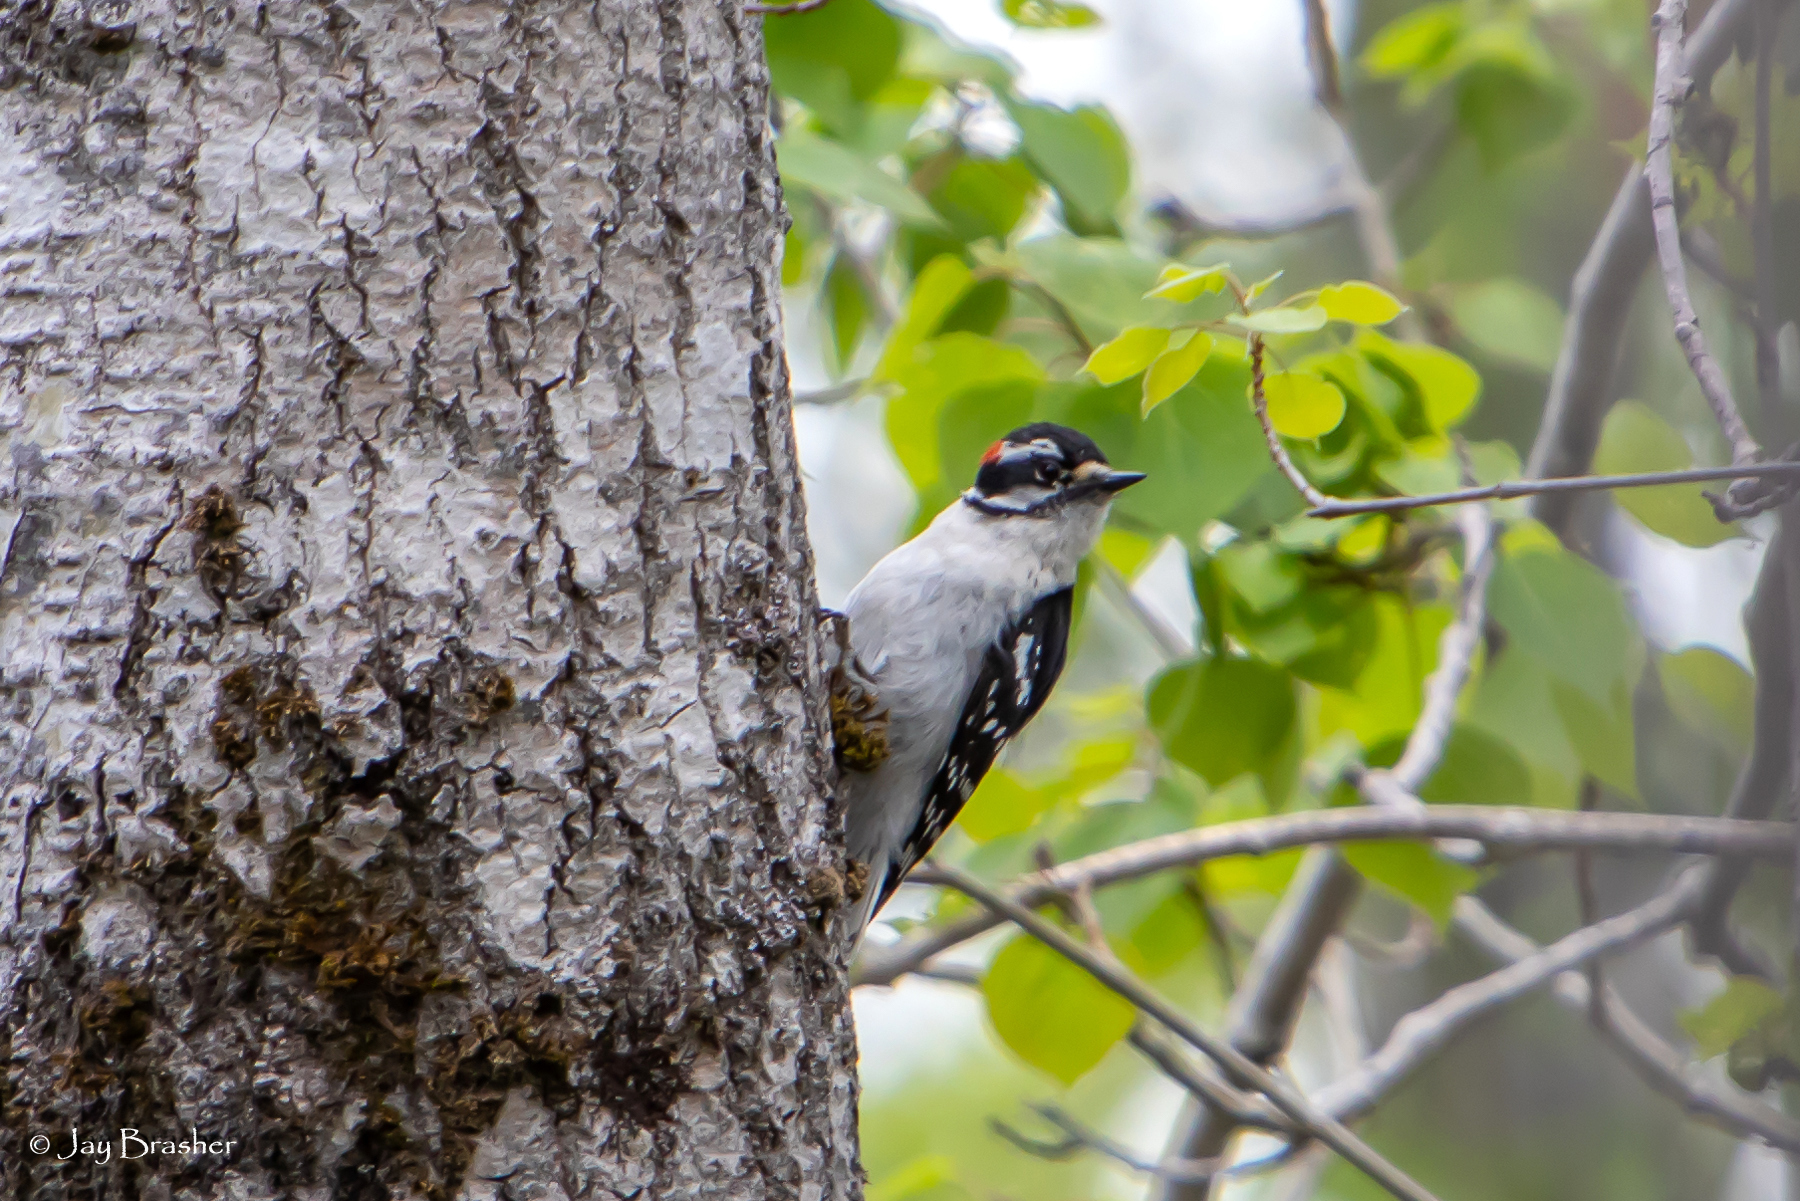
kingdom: Animalia
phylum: Chordata
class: Aves
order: Piciformes
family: Picidae
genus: Dryobates
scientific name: Dryobates pubescens
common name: Downy woodpecker
